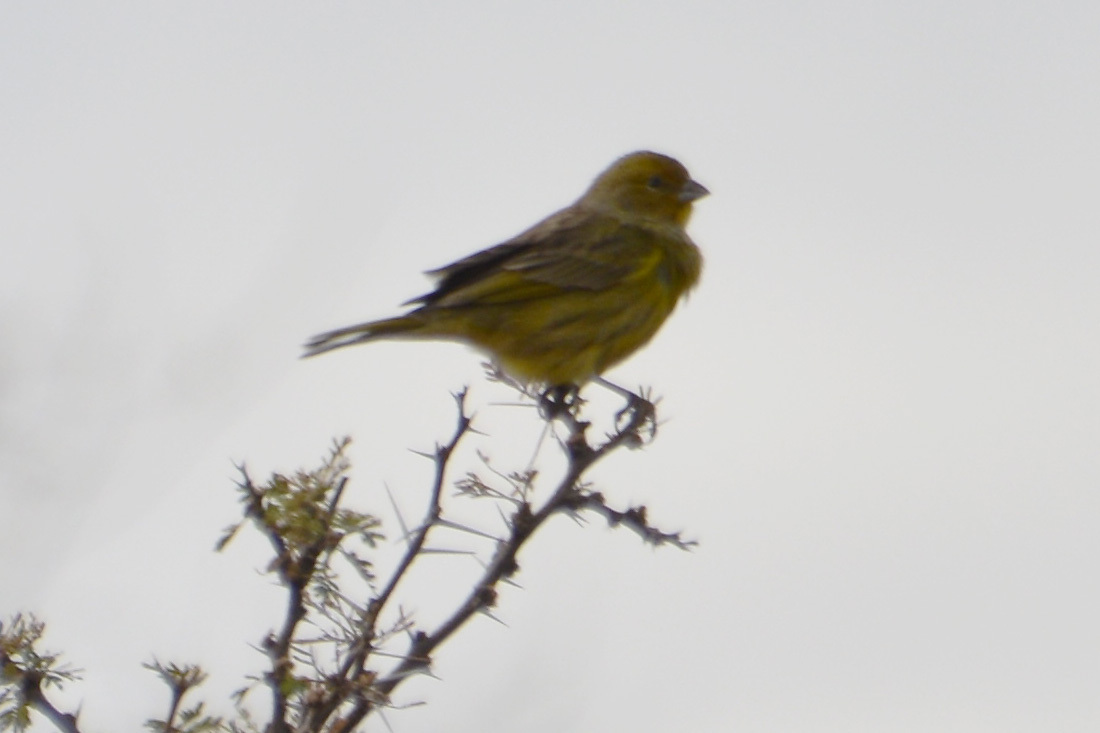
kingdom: Animalia
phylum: Chordata
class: Aves
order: Passeriformes
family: Thraupidae
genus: Sicalis
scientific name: Sicalis flaveola
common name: Saffron finch
